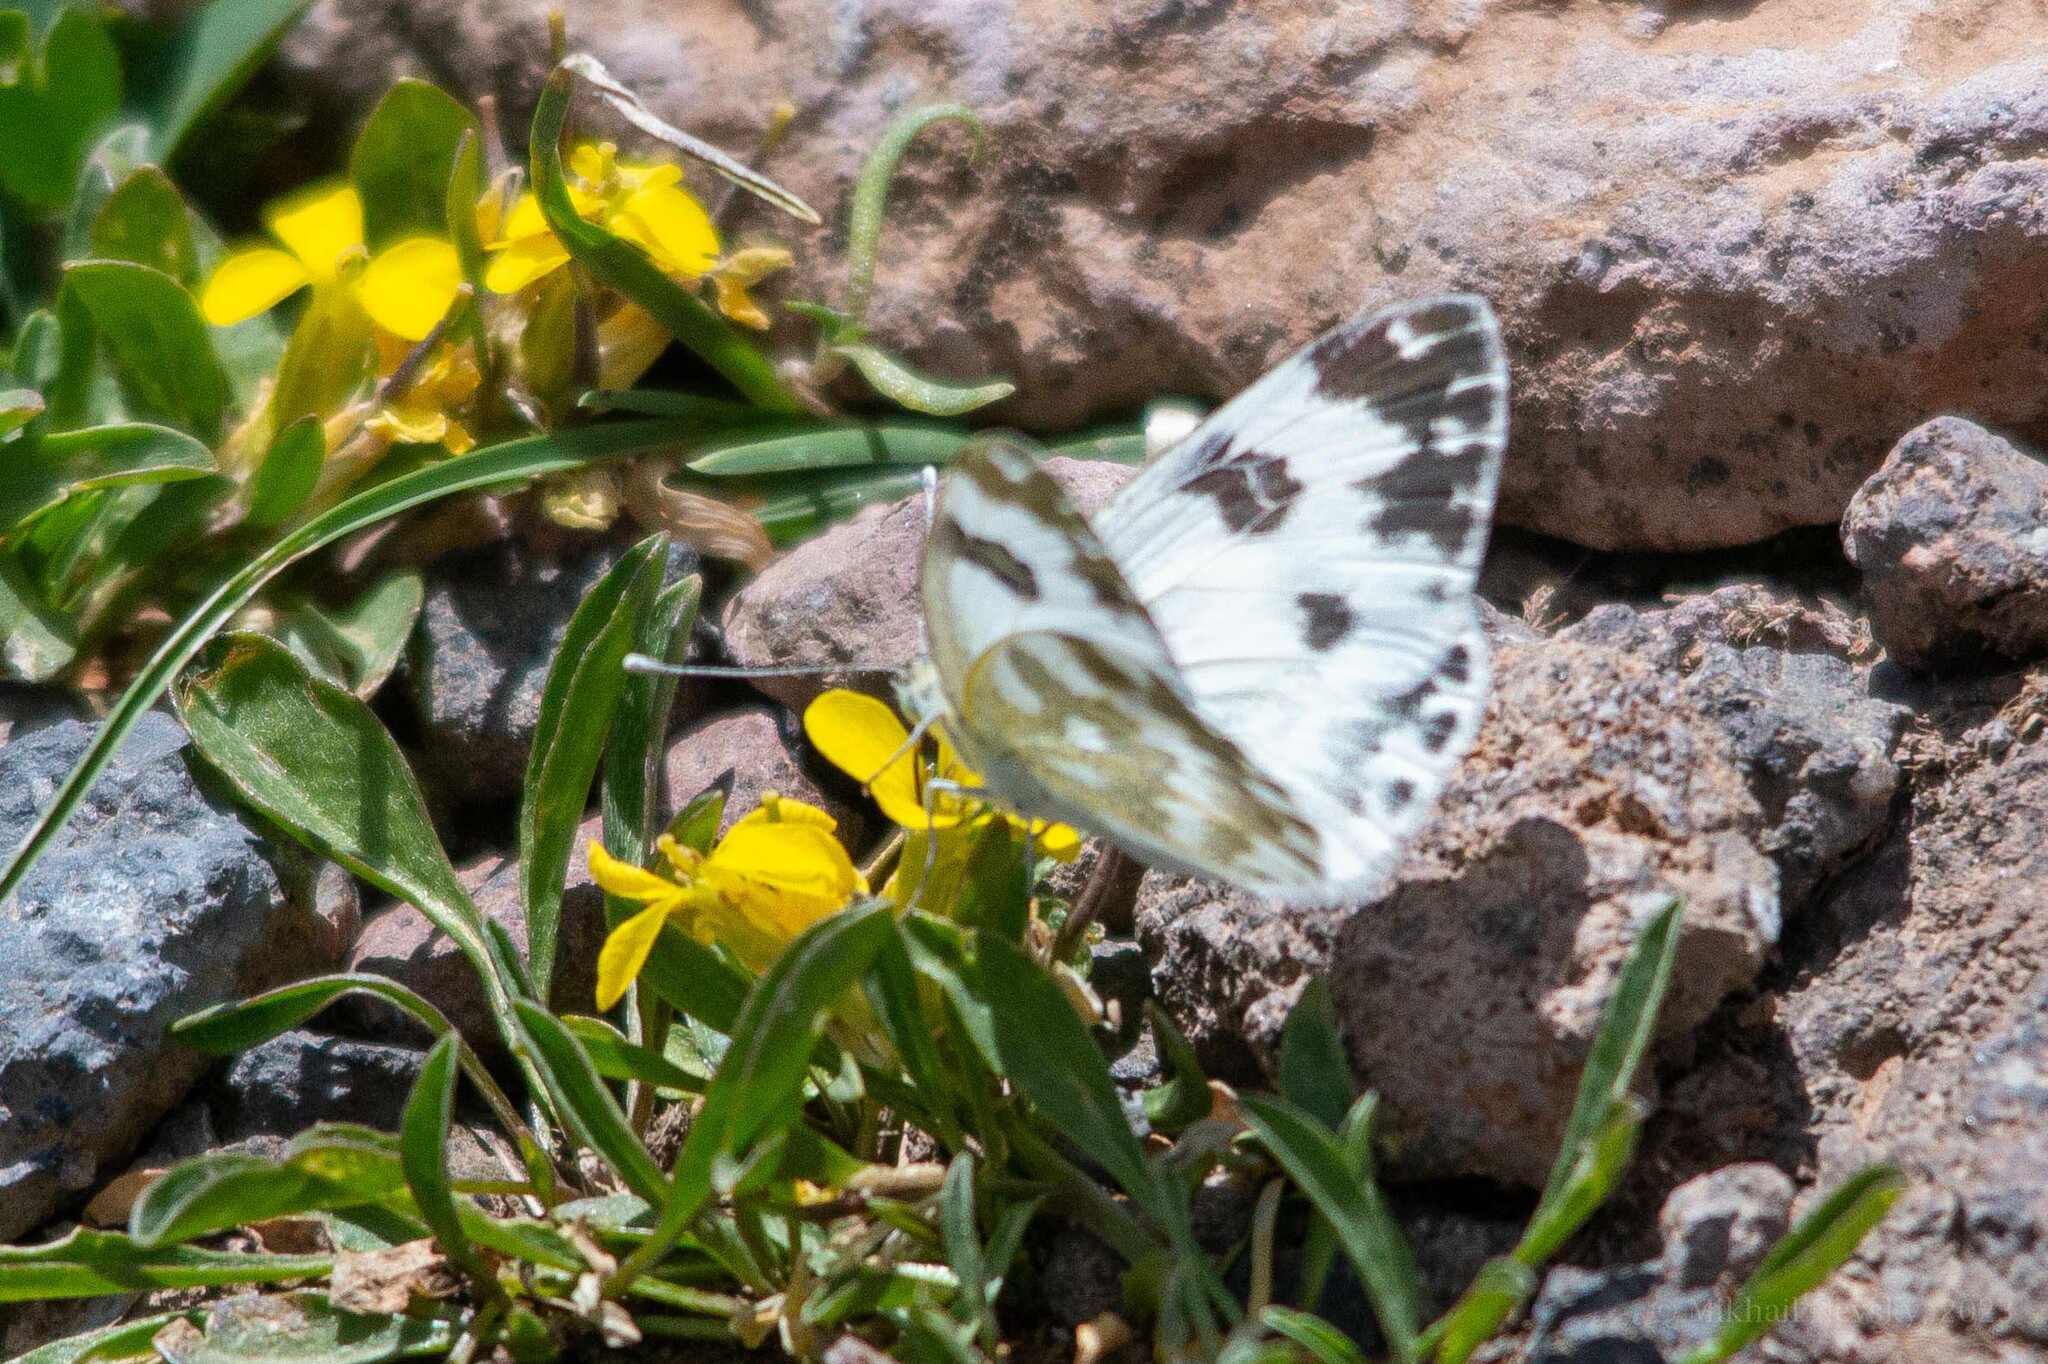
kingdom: Animalia
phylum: Arthropoda
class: Insecta
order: Lepidoptera
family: Pieridae
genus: Pontia
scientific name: Pontia edusa
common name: Eastern bath white
